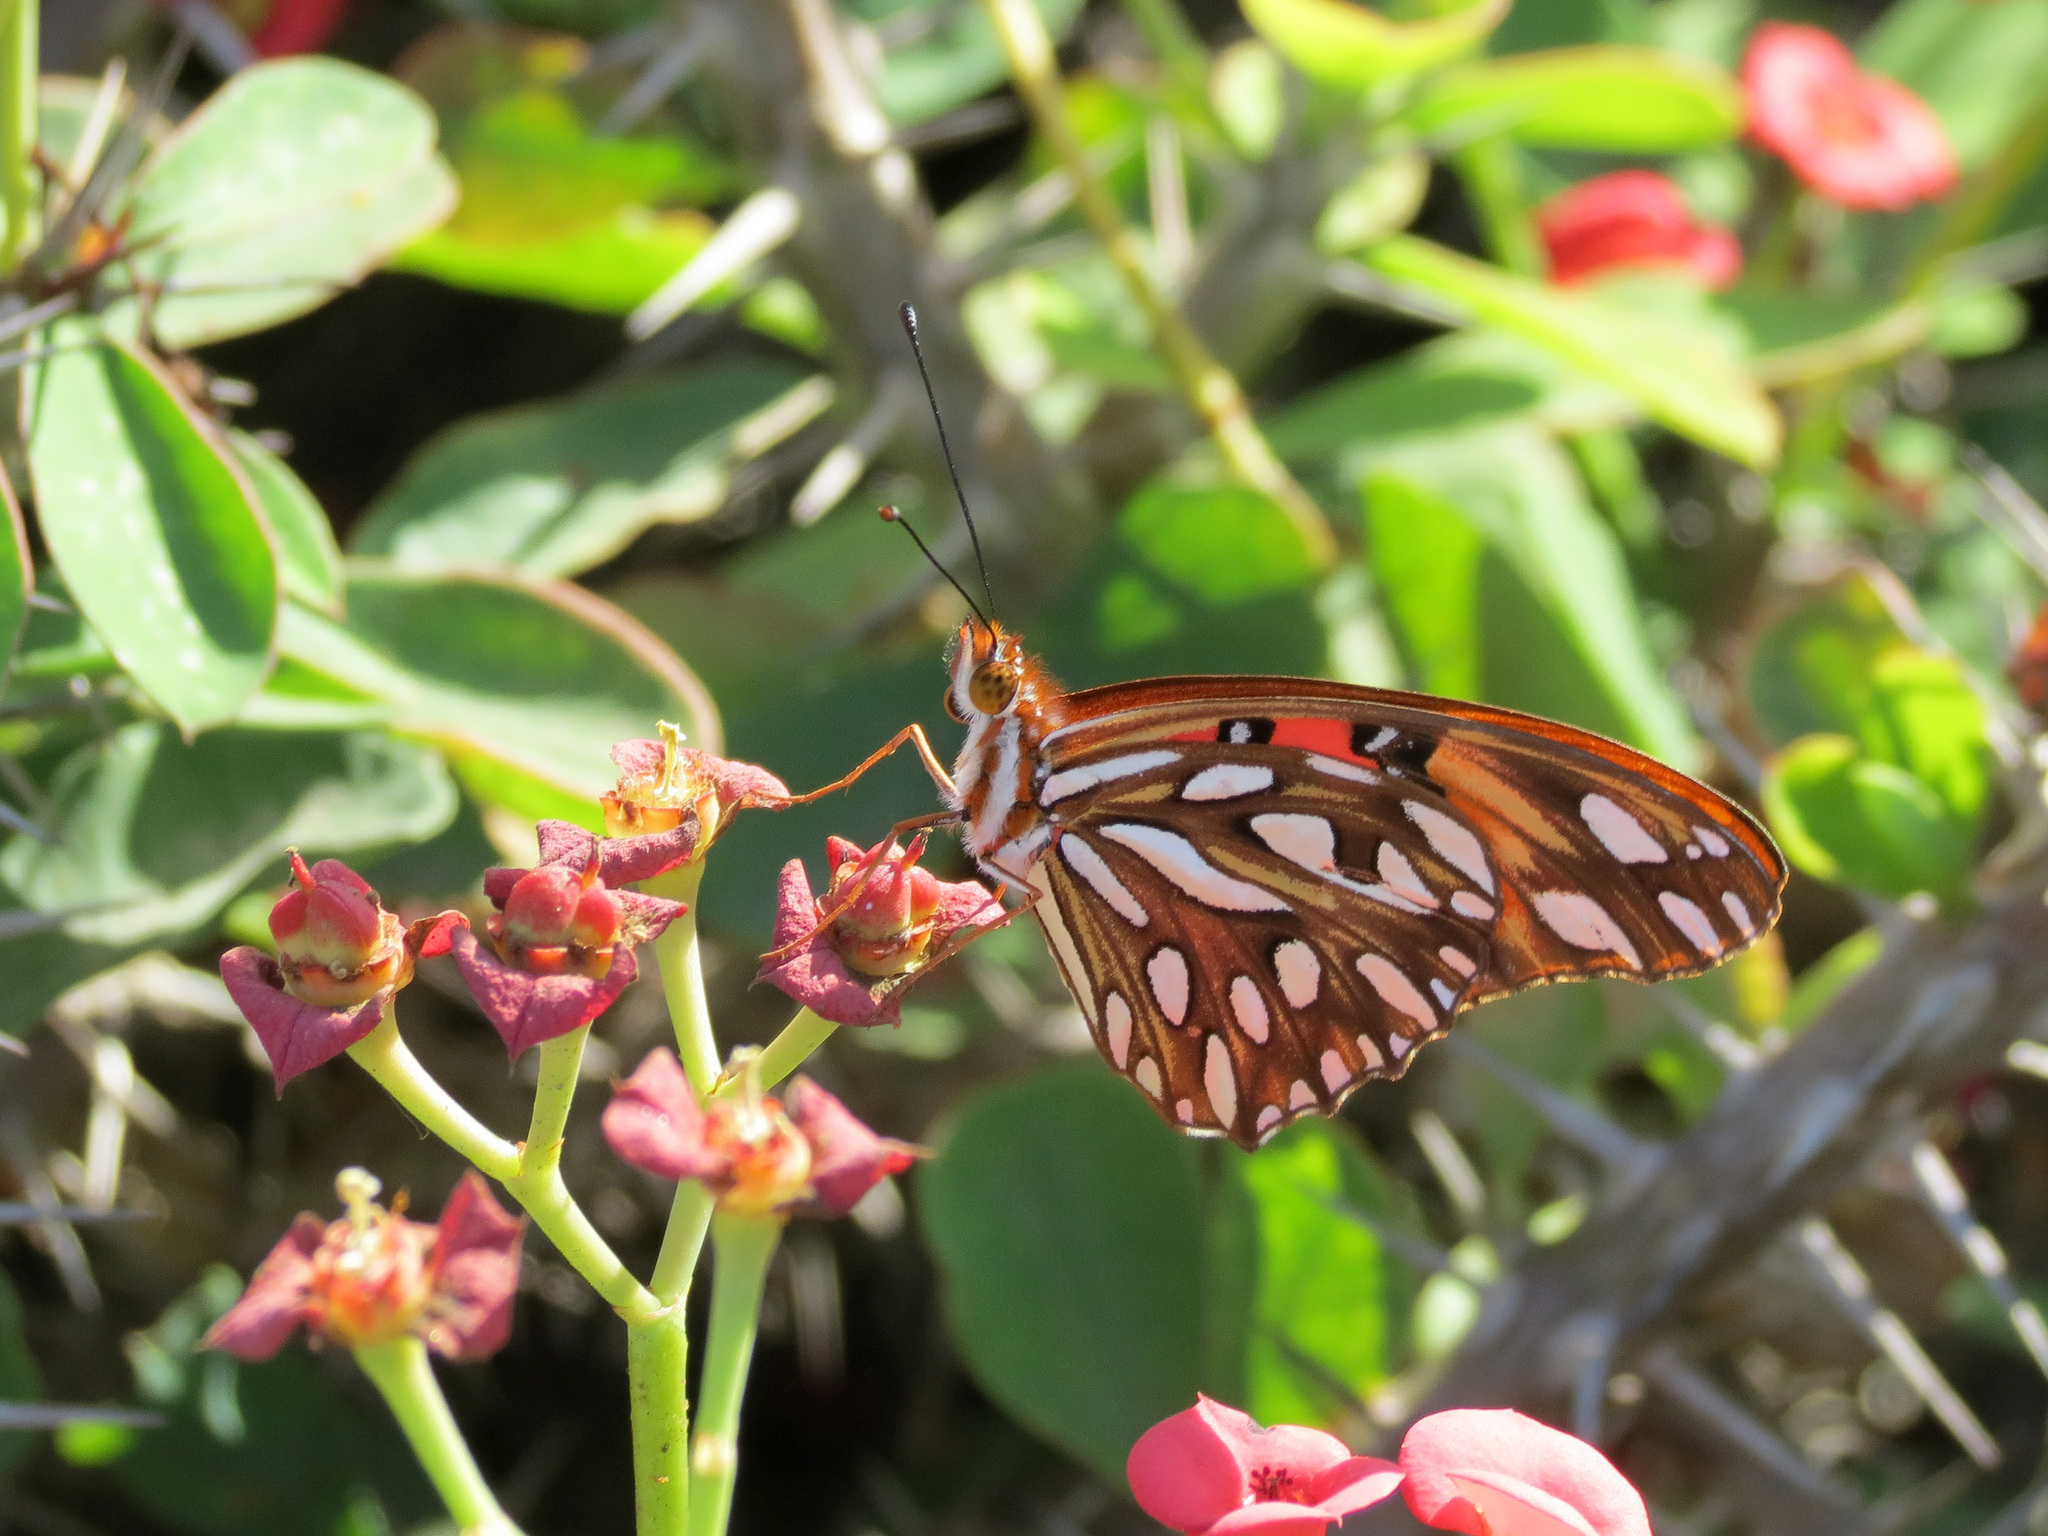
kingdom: Animalia
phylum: Arthropoda
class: Insecta
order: Lepidoptera
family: Nymphalidae
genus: Dione
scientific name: Dione vanillae
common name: Gulf fritillary
